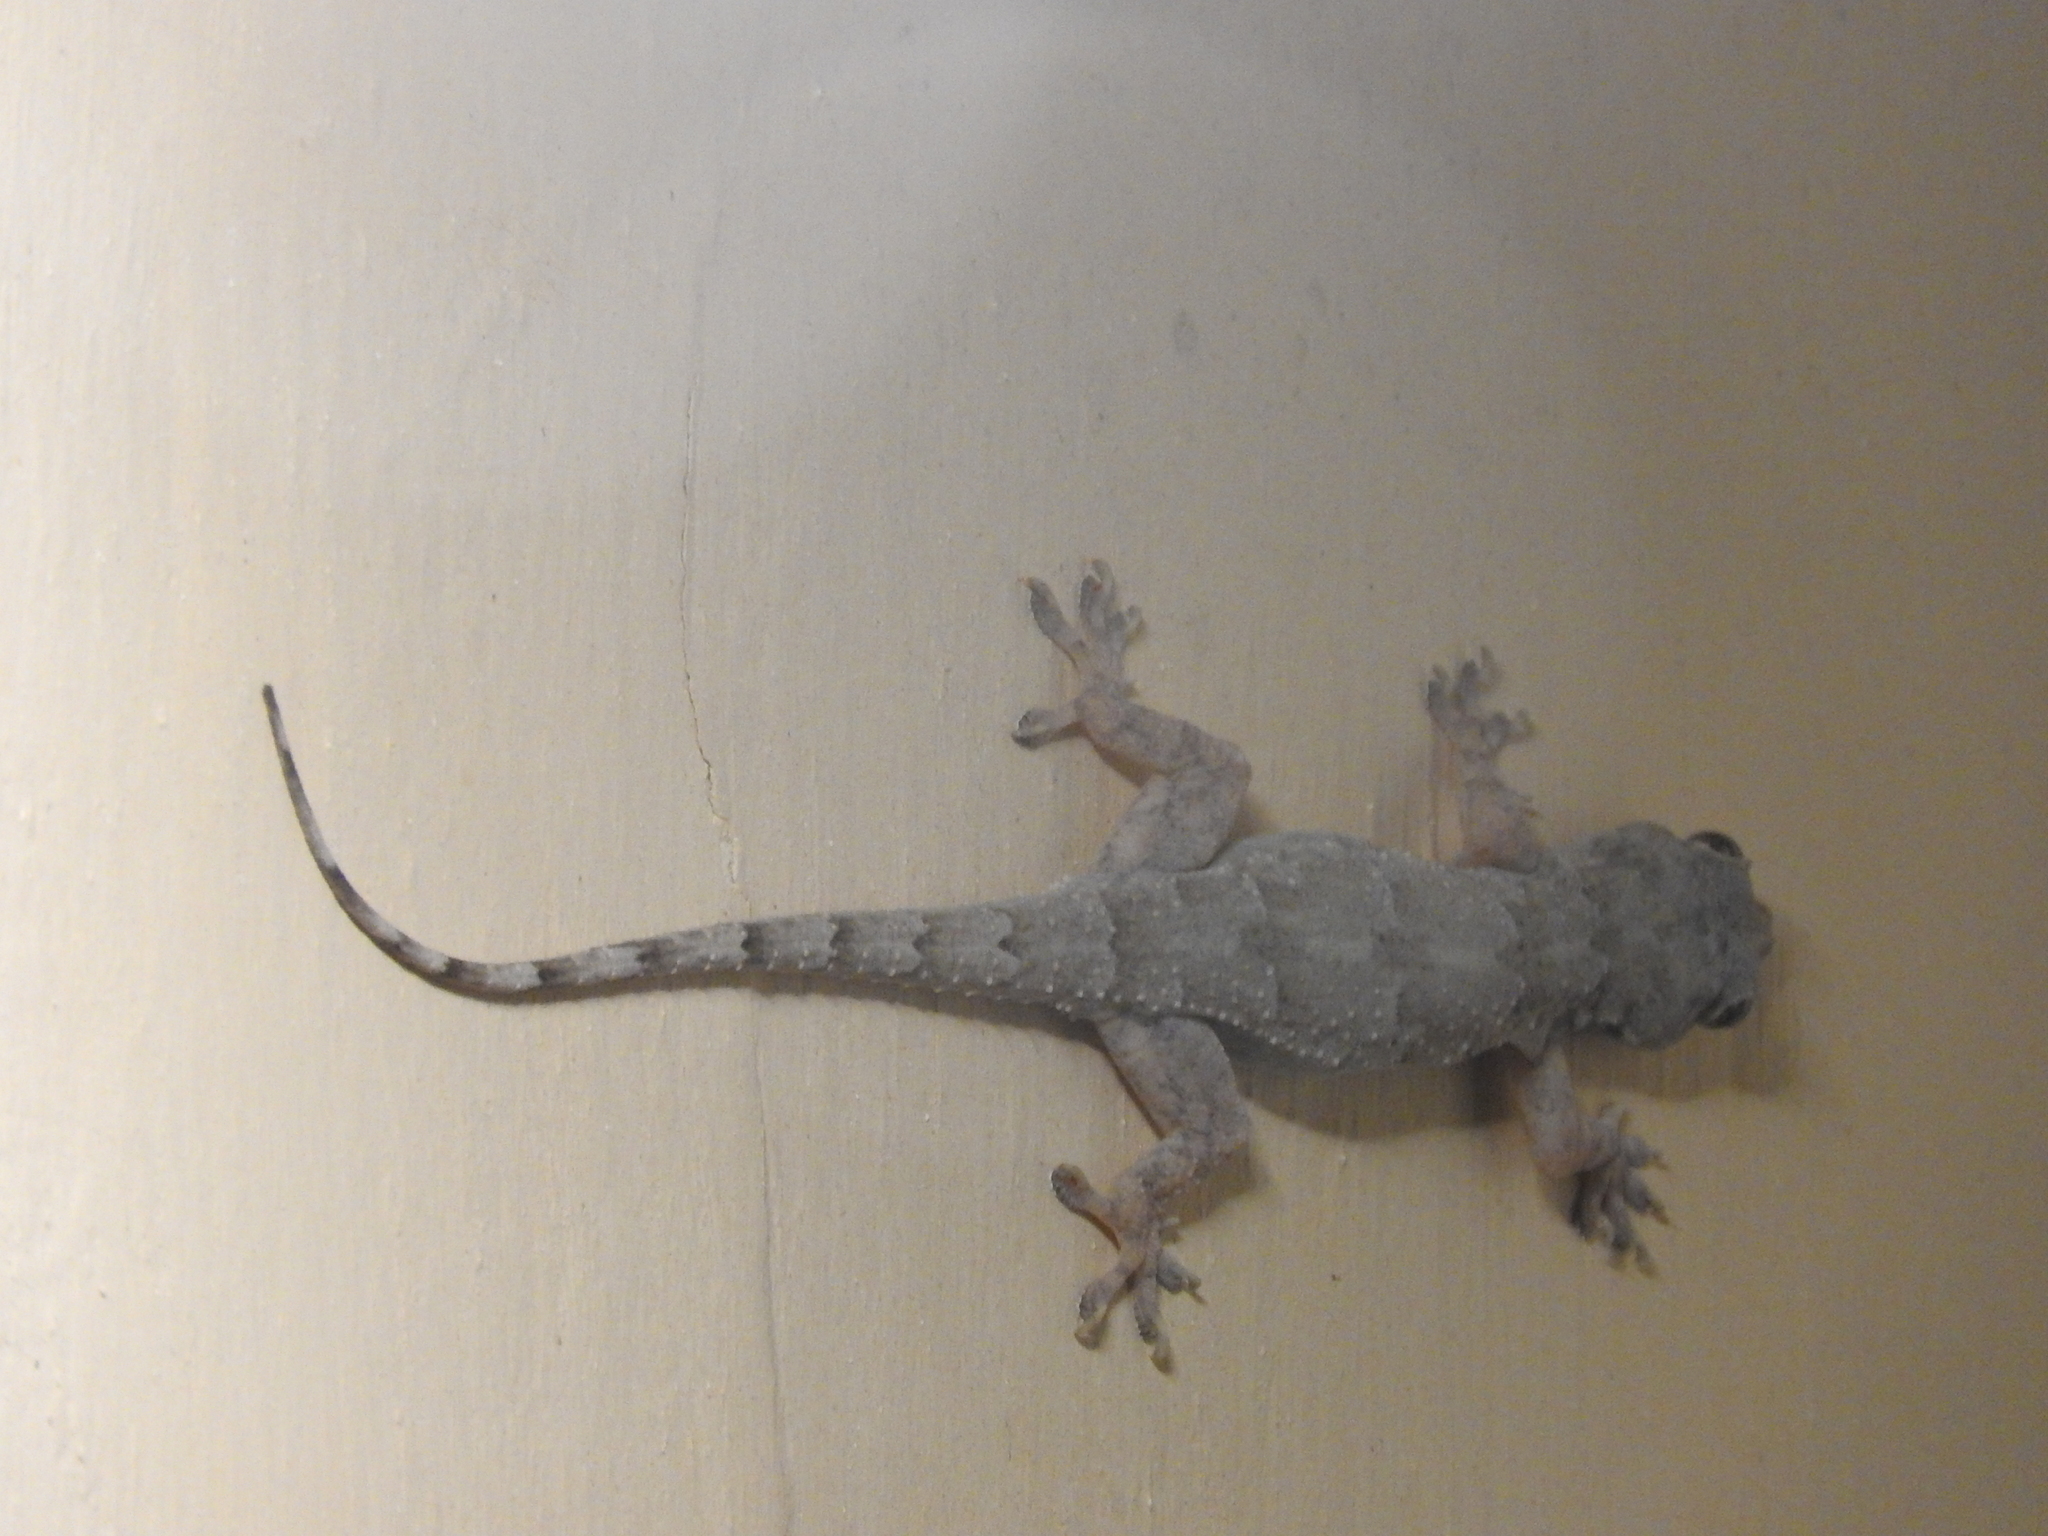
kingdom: Animalia
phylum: Chordata
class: Squamata
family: Gekkonidae
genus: Hemidactylus
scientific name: Hemidactylus platycephalus
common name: Baobab gecko
